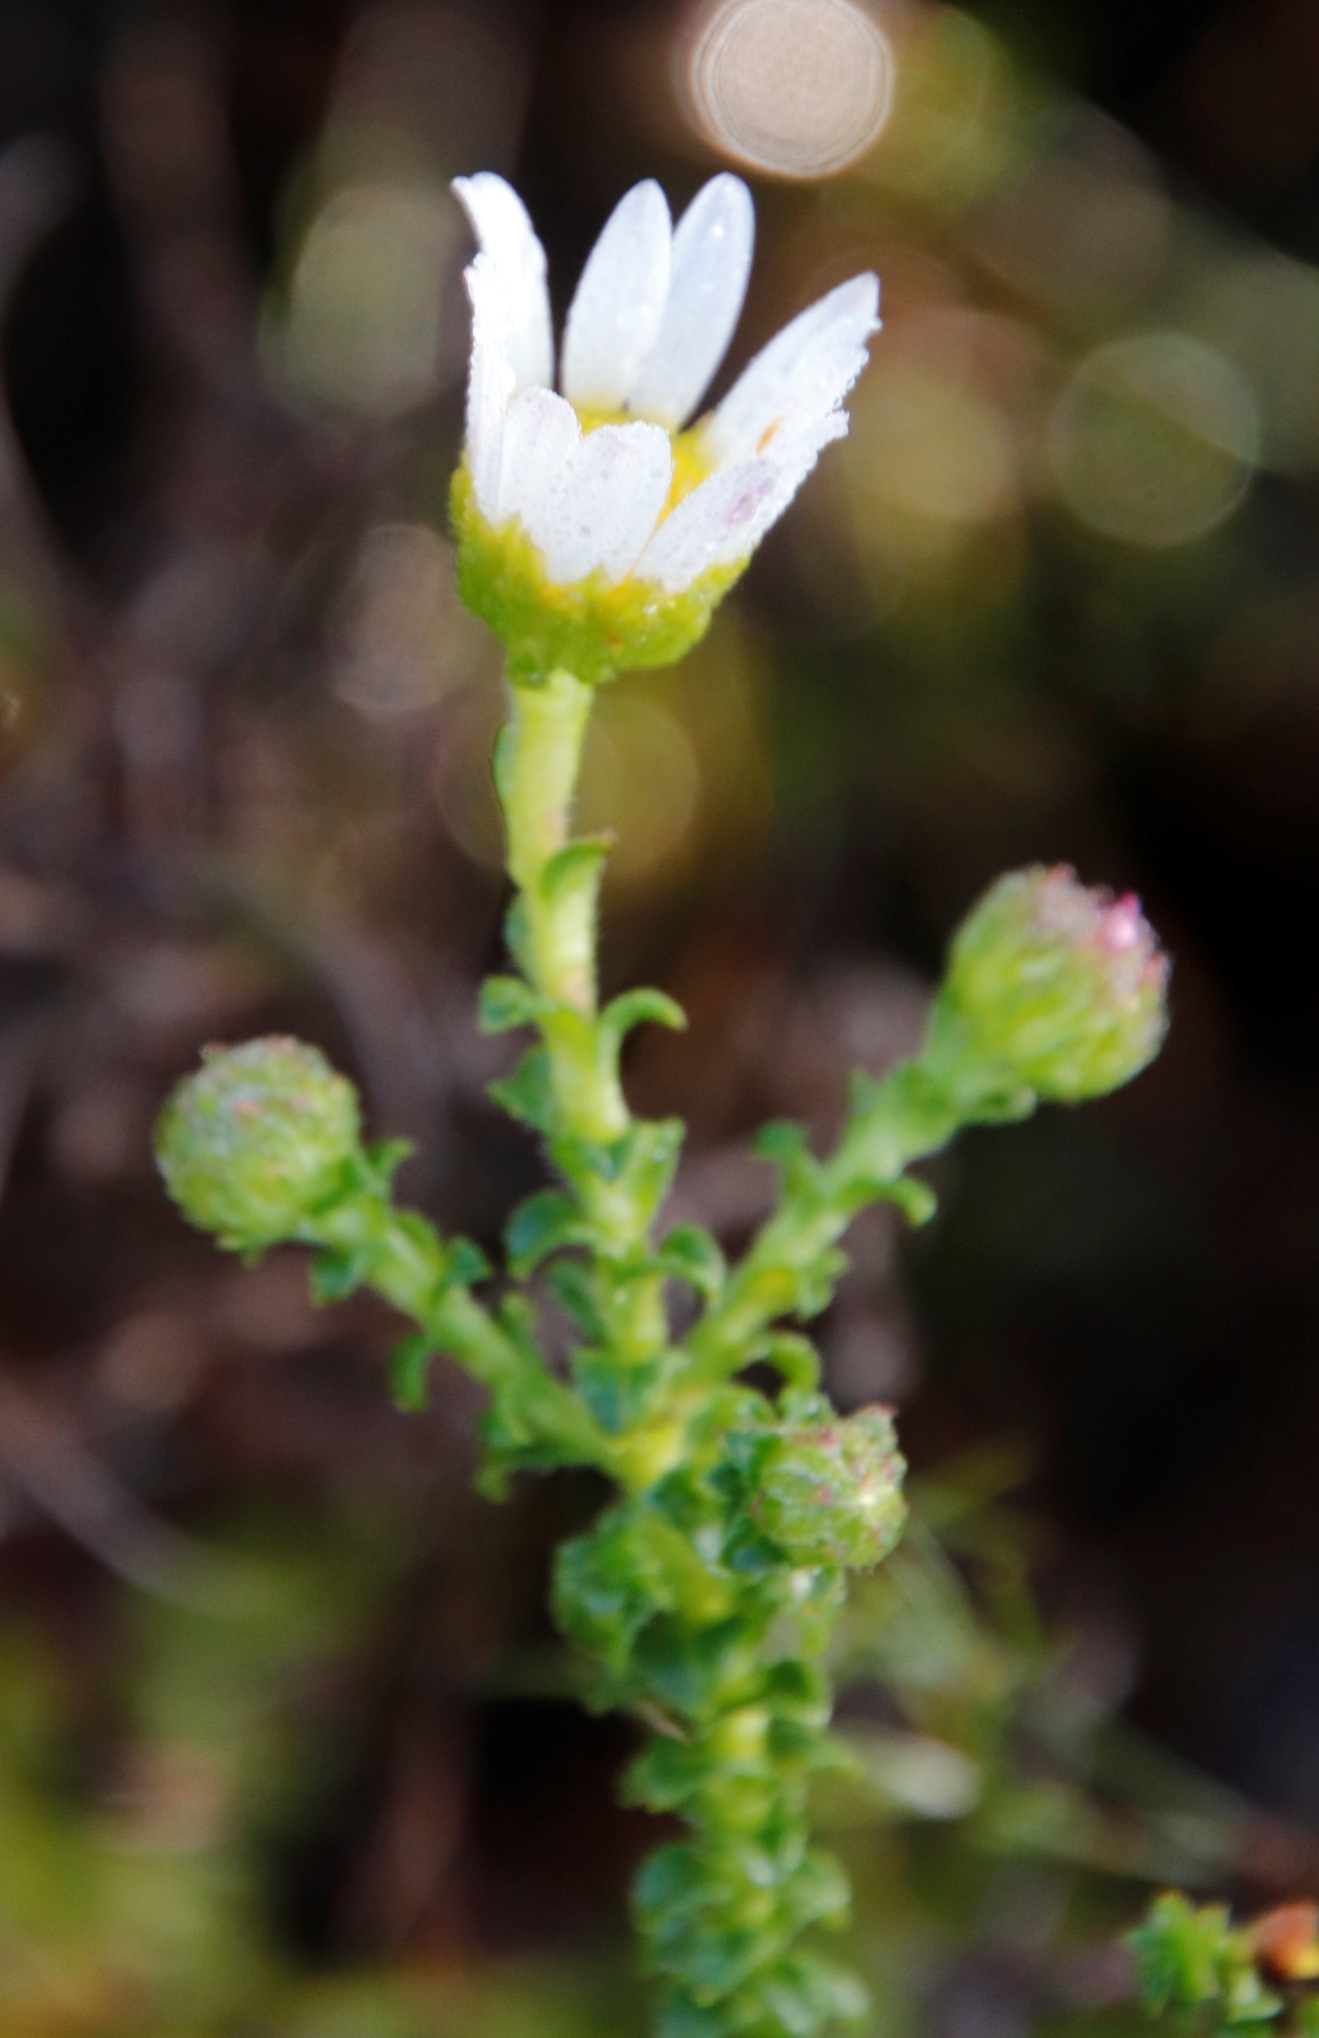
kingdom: Plantae
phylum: Tracheophyta
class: Magnoliopsida
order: Asterales
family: Asteraceae
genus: Polyarrhena
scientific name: Polyarrhena reflexa
